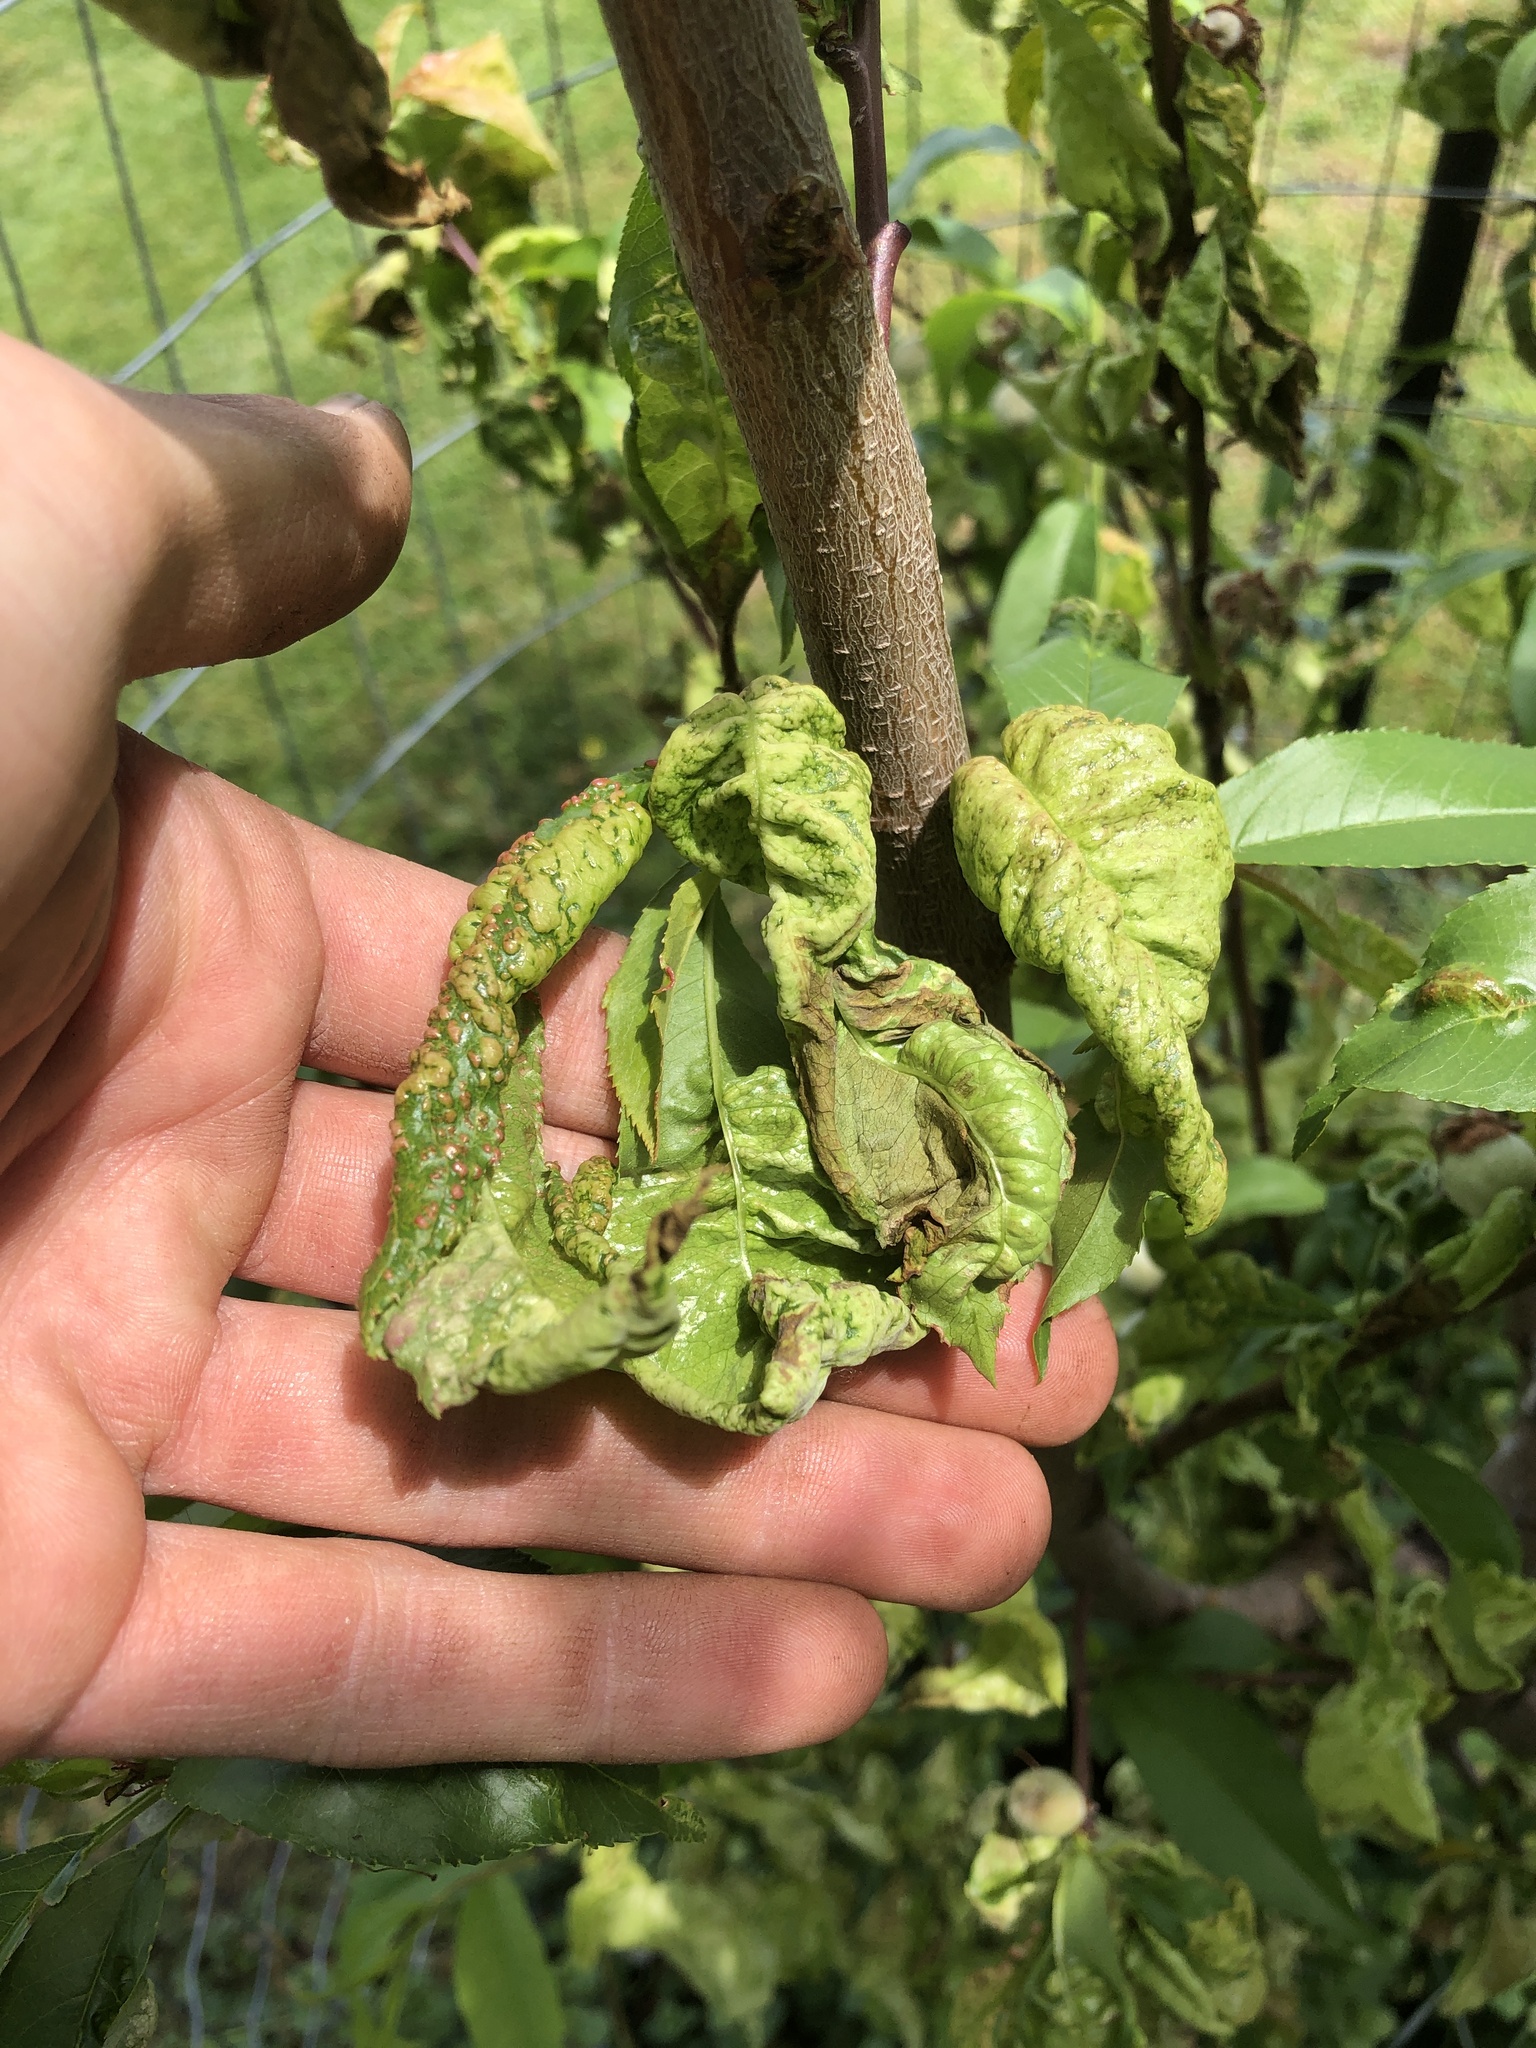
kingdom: Fungi
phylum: Ascomycota
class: Taphrinomycetes
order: Taphrinales
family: Taphrinaceae
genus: Taphrina
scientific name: Taphrina deformans
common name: Peach leaf curl
